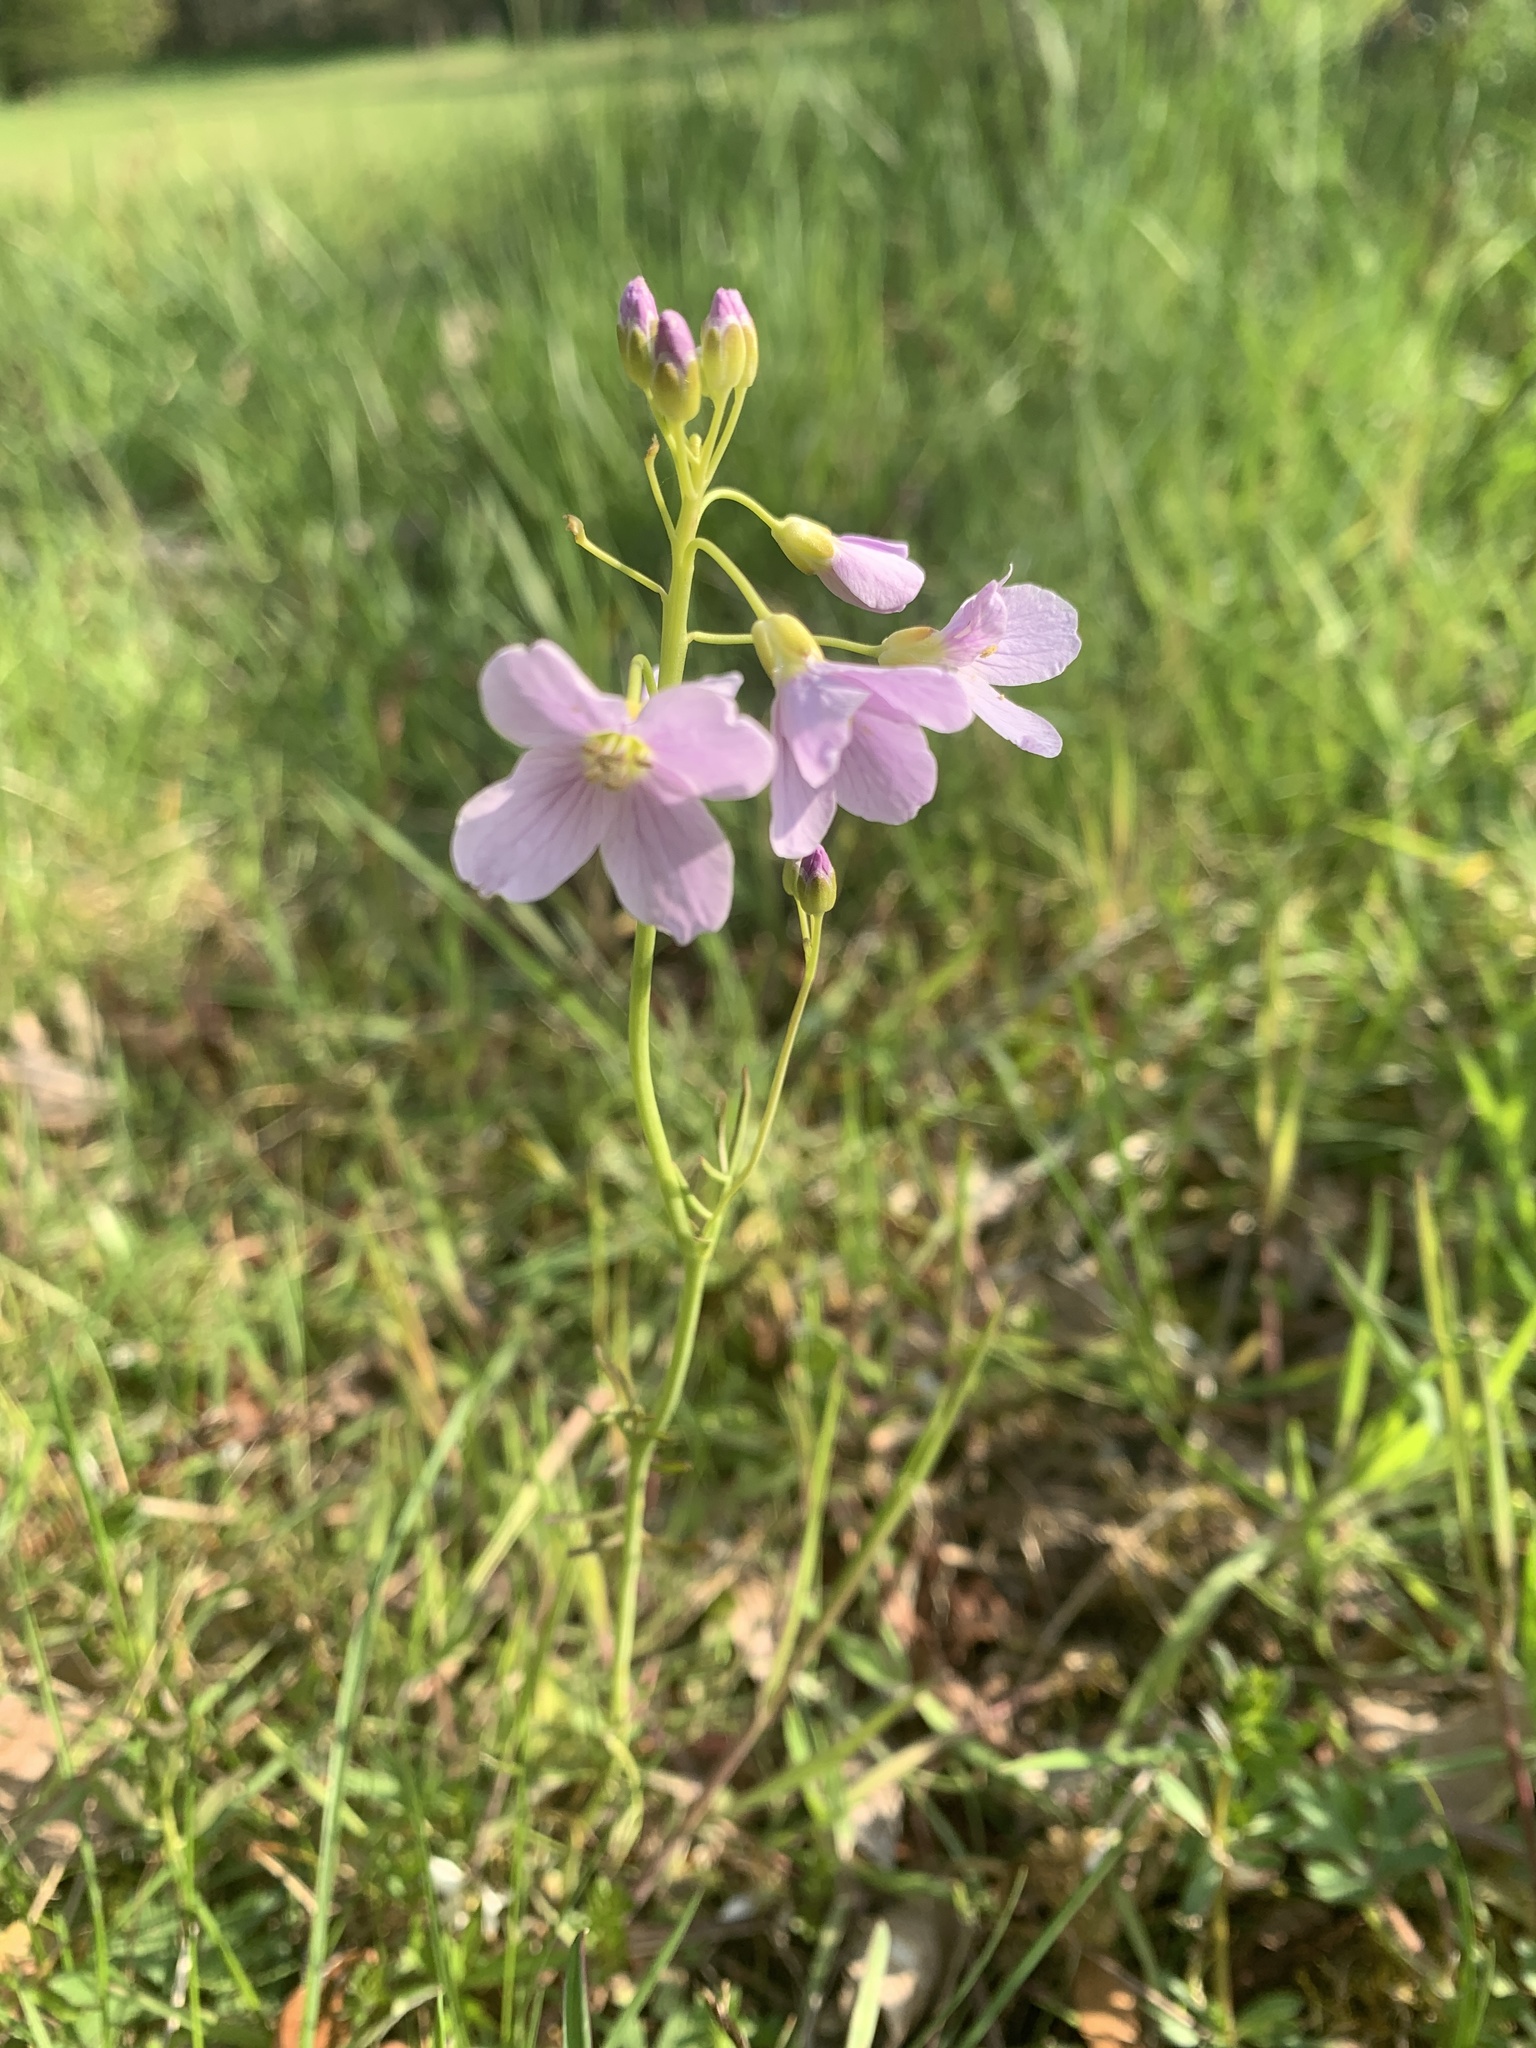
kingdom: Plantae
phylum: Tracheophyta
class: Magnoliopsida
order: Brassicales
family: Brassicaceae
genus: Cardamine
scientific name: Cardamine pratensis
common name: Cuckoo flower
